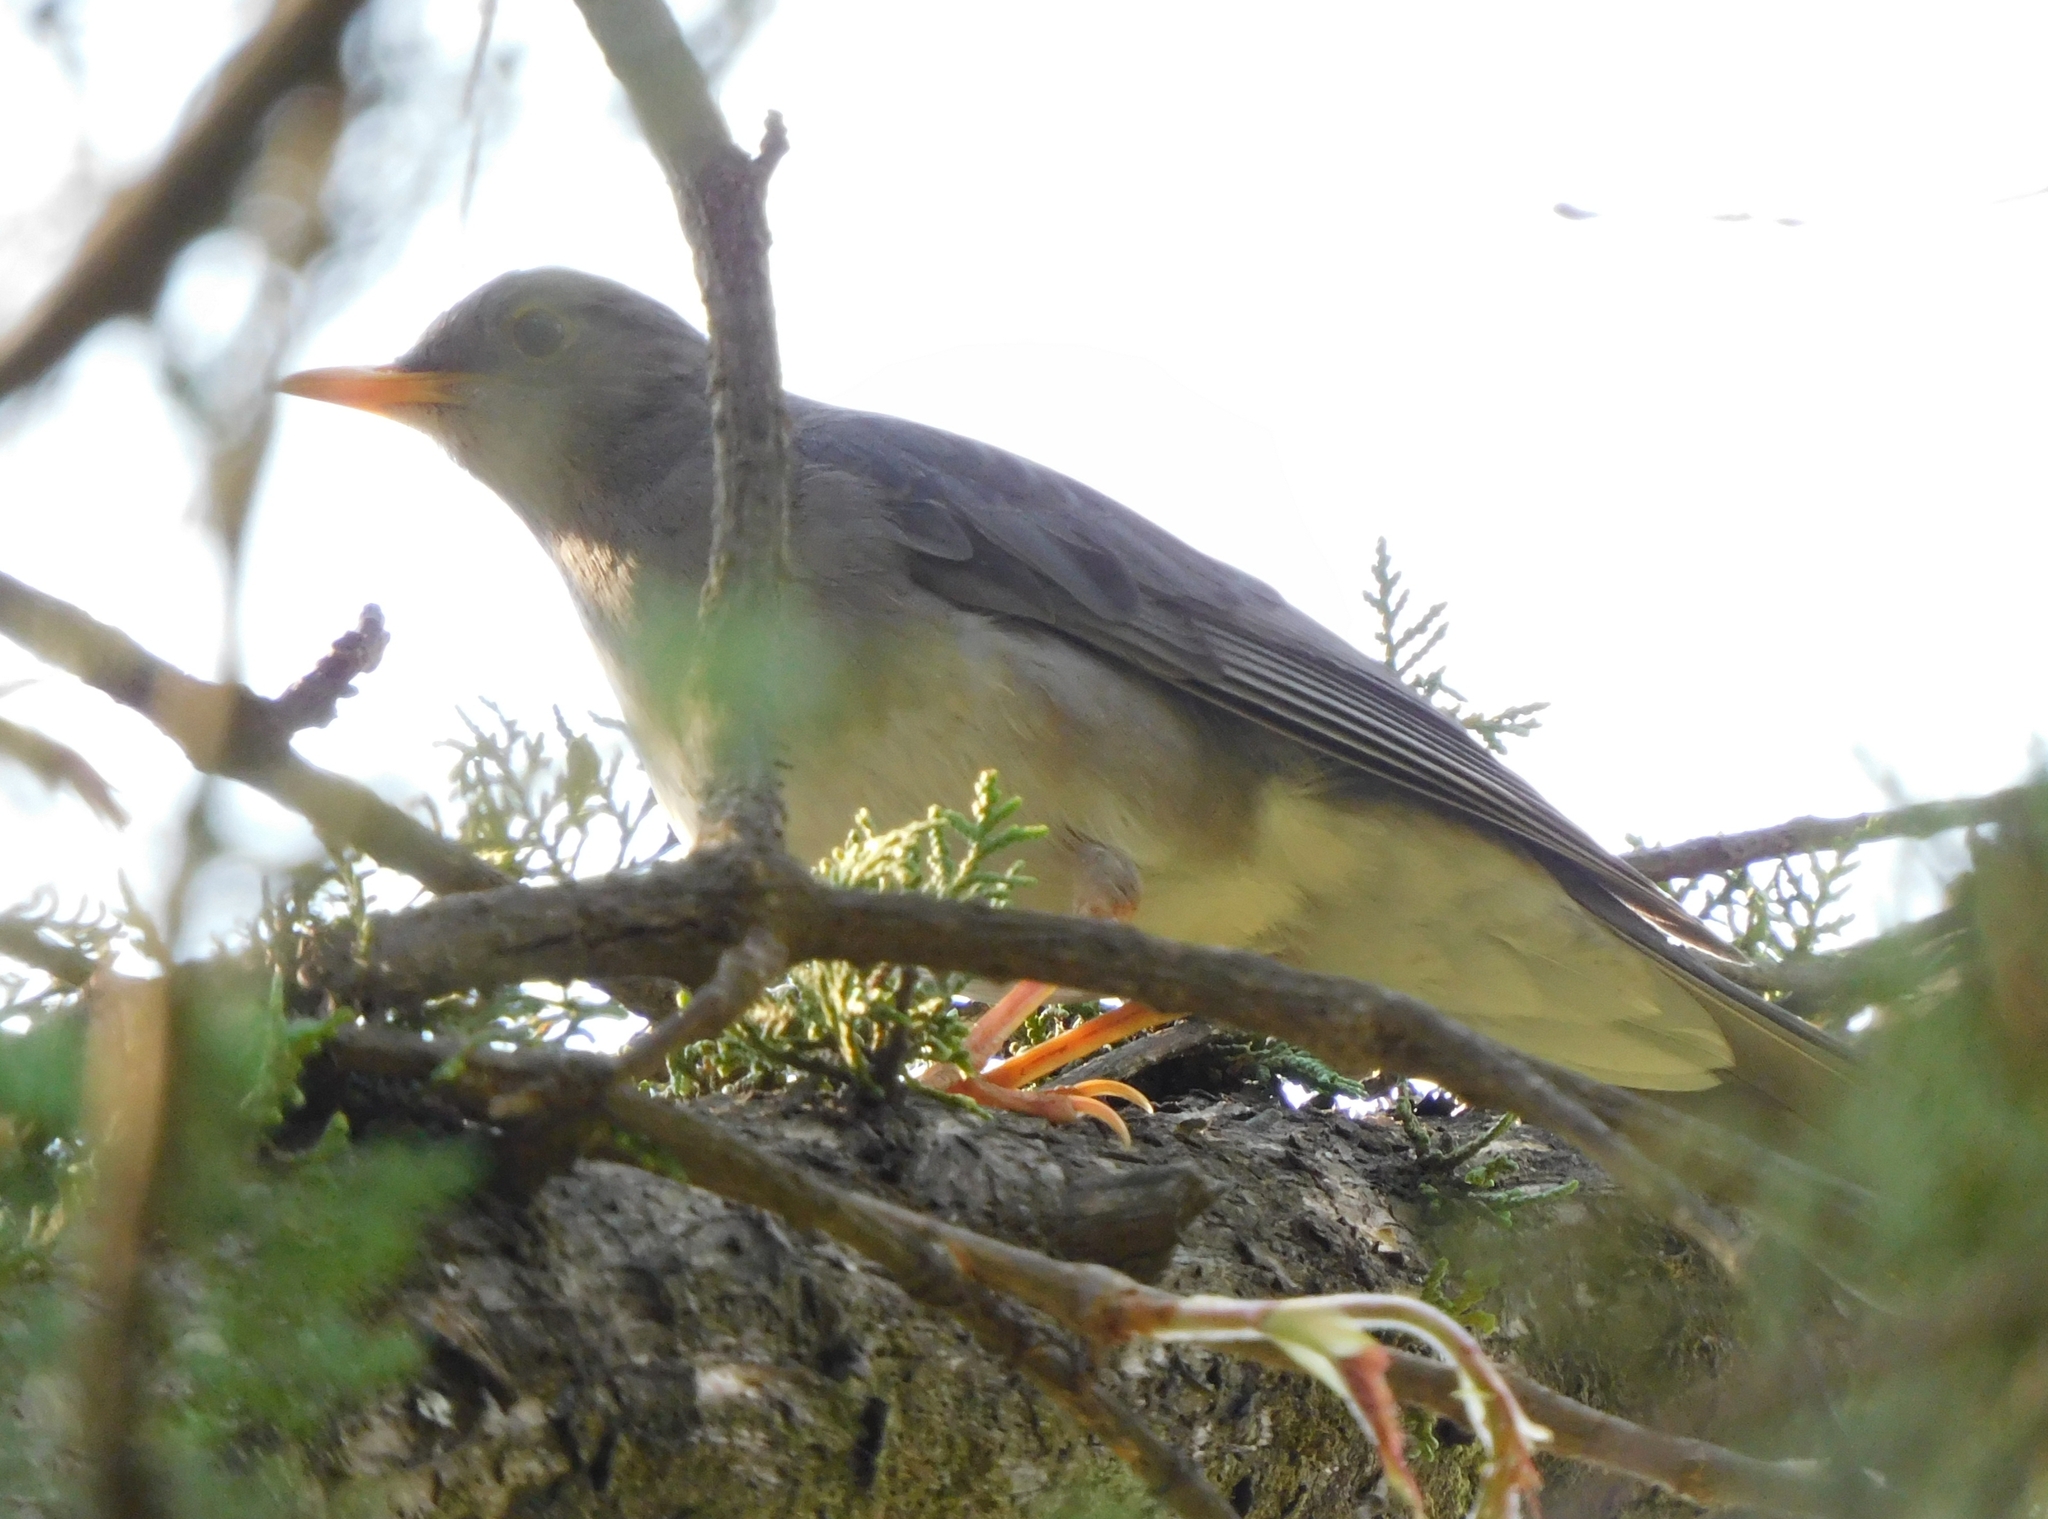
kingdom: Animalia
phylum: Chordata
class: Aves
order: Passeriformes
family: Turdidae
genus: Turdus
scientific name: Turdus unicolor
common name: Tickell's thrush
